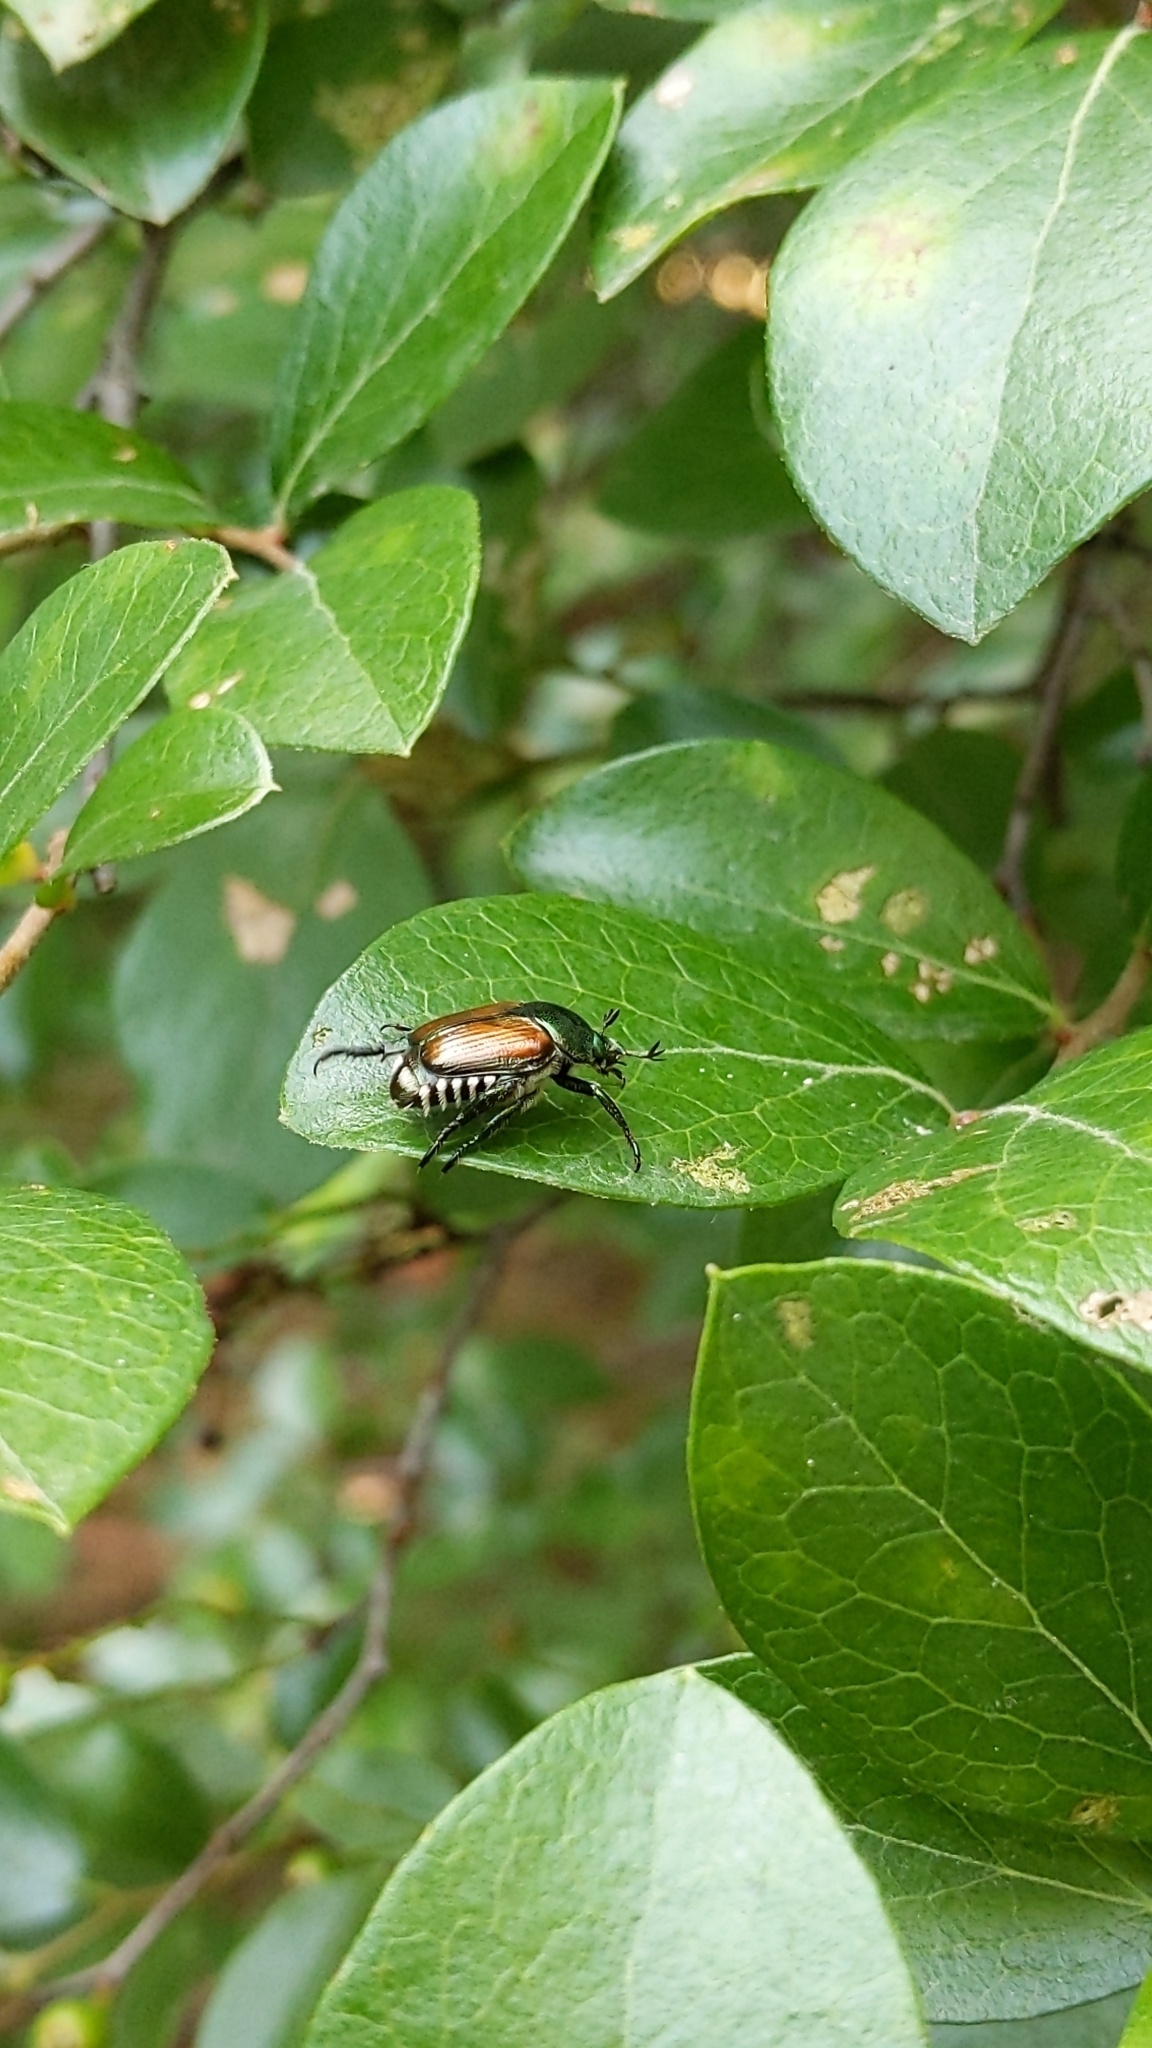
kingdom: Animalia
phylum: Arthropoda
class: Insecta
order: Coleoptera
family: Scarabaeidae
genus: Popillia
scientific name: Popillia japonica
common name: Japanese beetle
